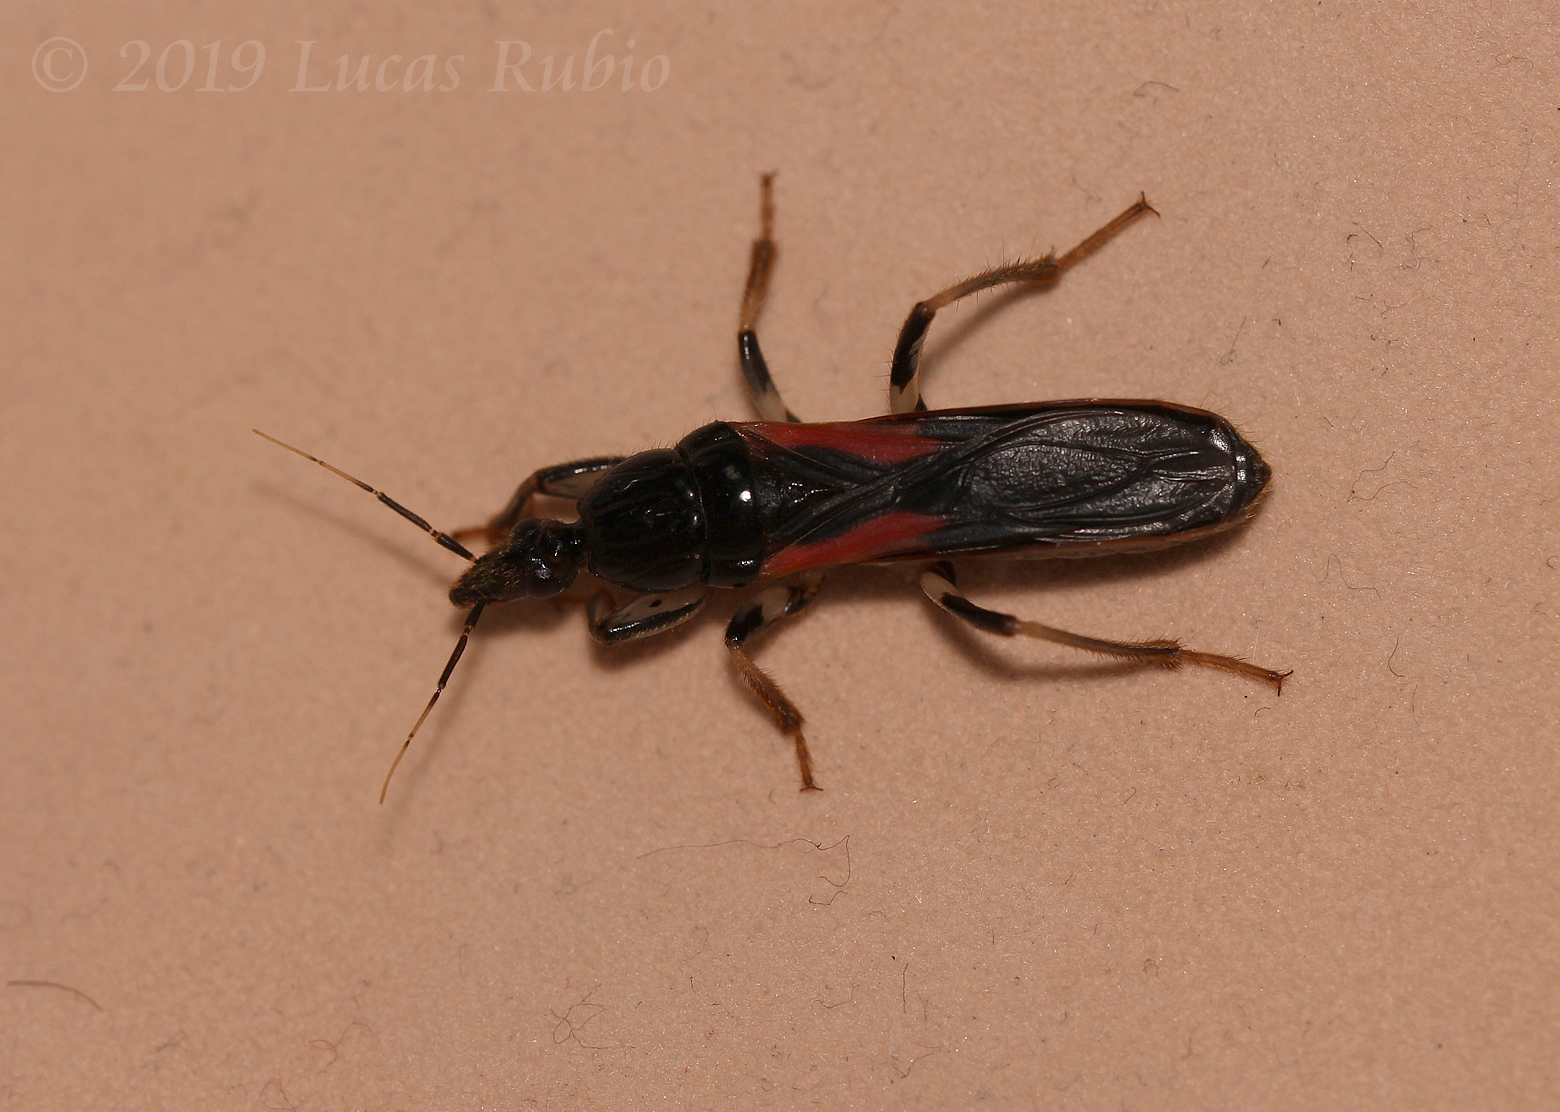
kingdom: Animalia
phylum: Arthropoda
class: Insecta
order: Hemiptera
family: Reduviidae
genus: Sirthenea
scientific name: Sirthenea stria
